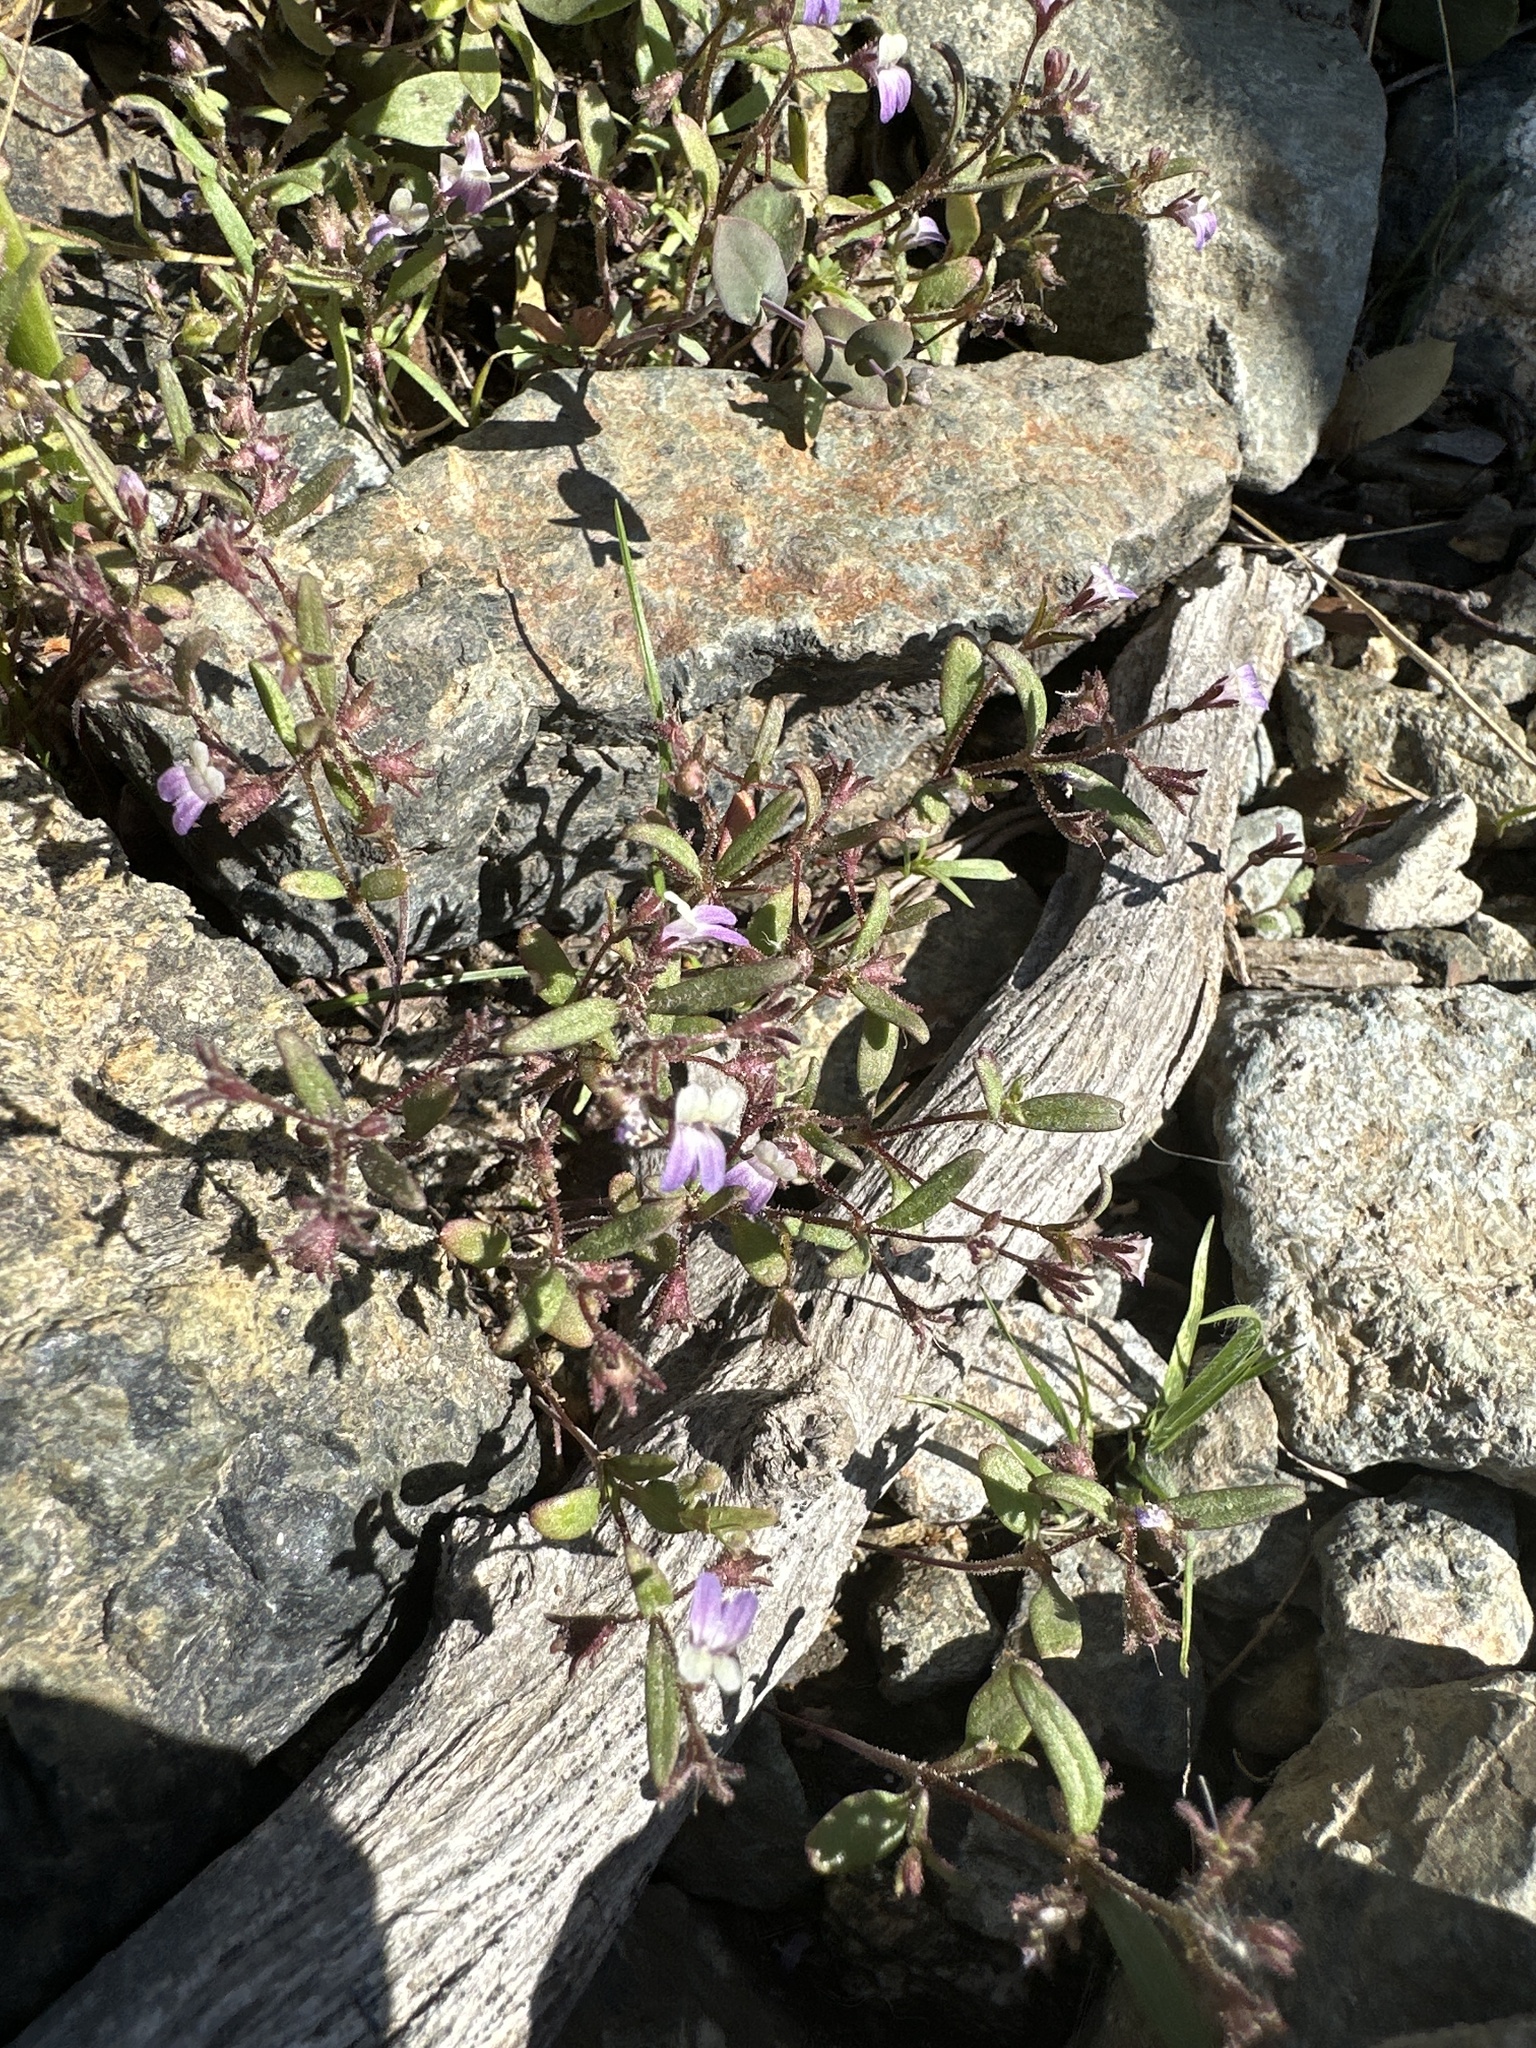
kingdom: Plantae
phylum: Tracheophyta
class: Magnoliopsida
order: Lamiales
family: Plantaginaceae
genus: Collinsia
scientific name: Collinsia torreyi
